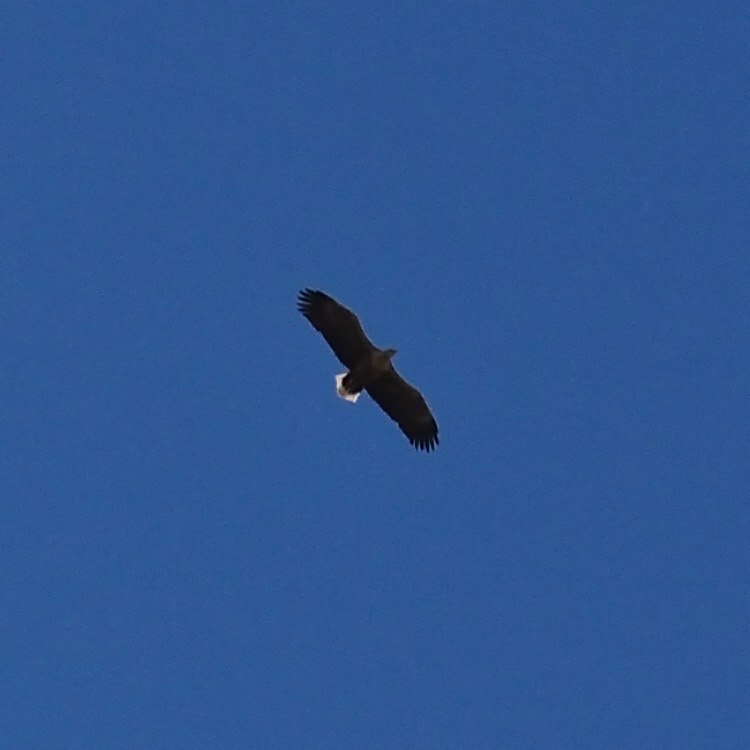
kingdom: Animalia
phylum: Chordata
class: Aves
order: Accipitriformes
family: Accipitridae
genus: Haliaeetus
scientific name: Haliaeetus albicilla
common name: White-tailed eagle
